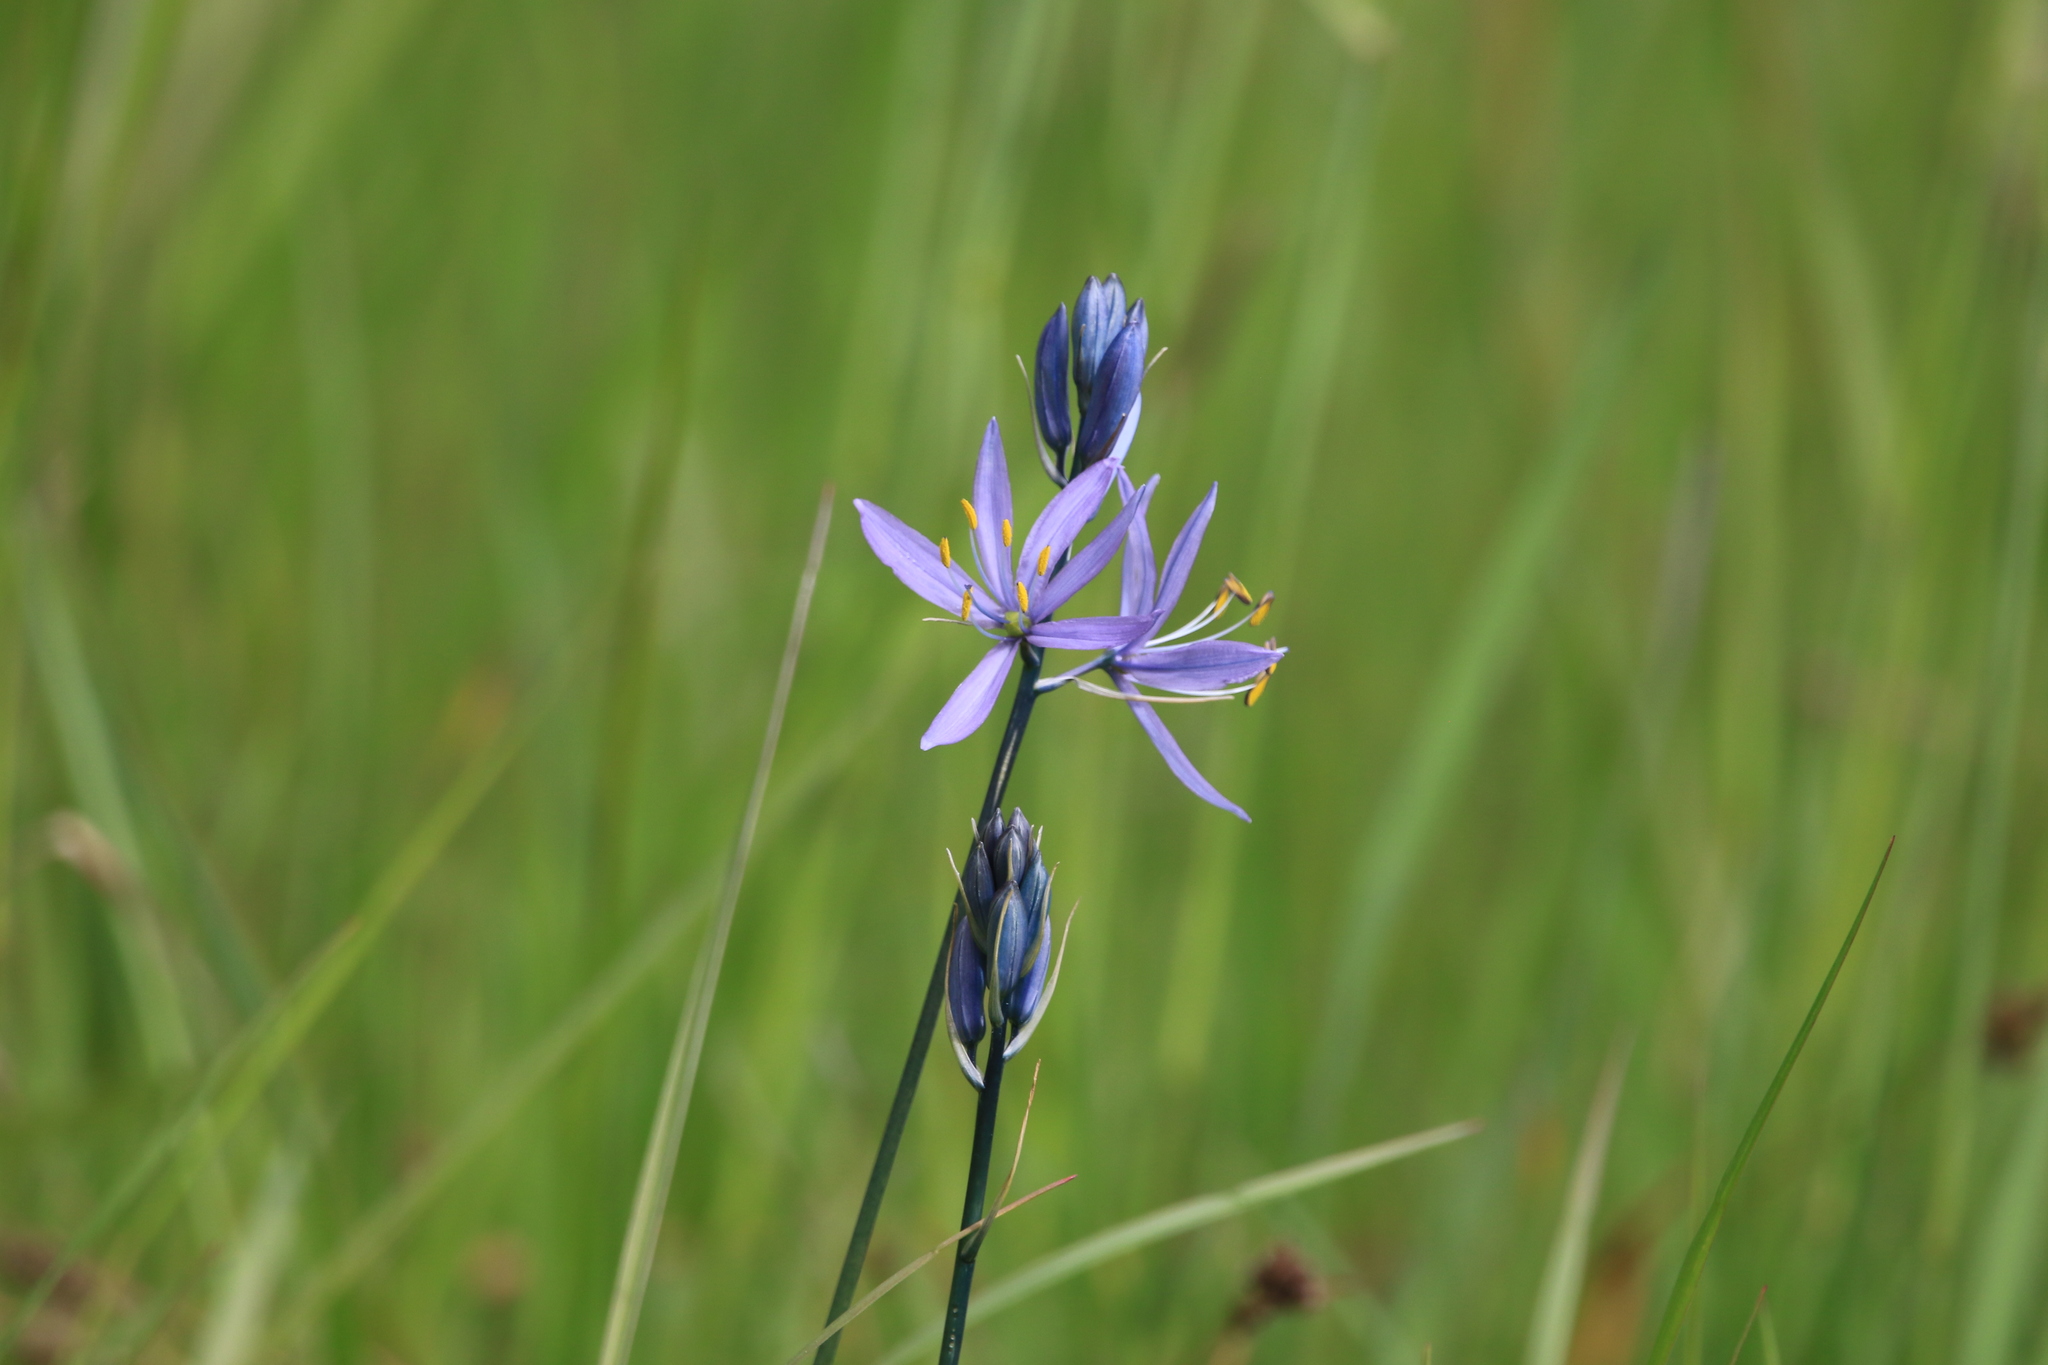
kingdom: Plantae
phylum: Tracheophyta
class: Liliopsida
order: Asparagales
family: Asparagaceae
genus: Camassia
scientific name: Camassia quamash
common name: Common camas
